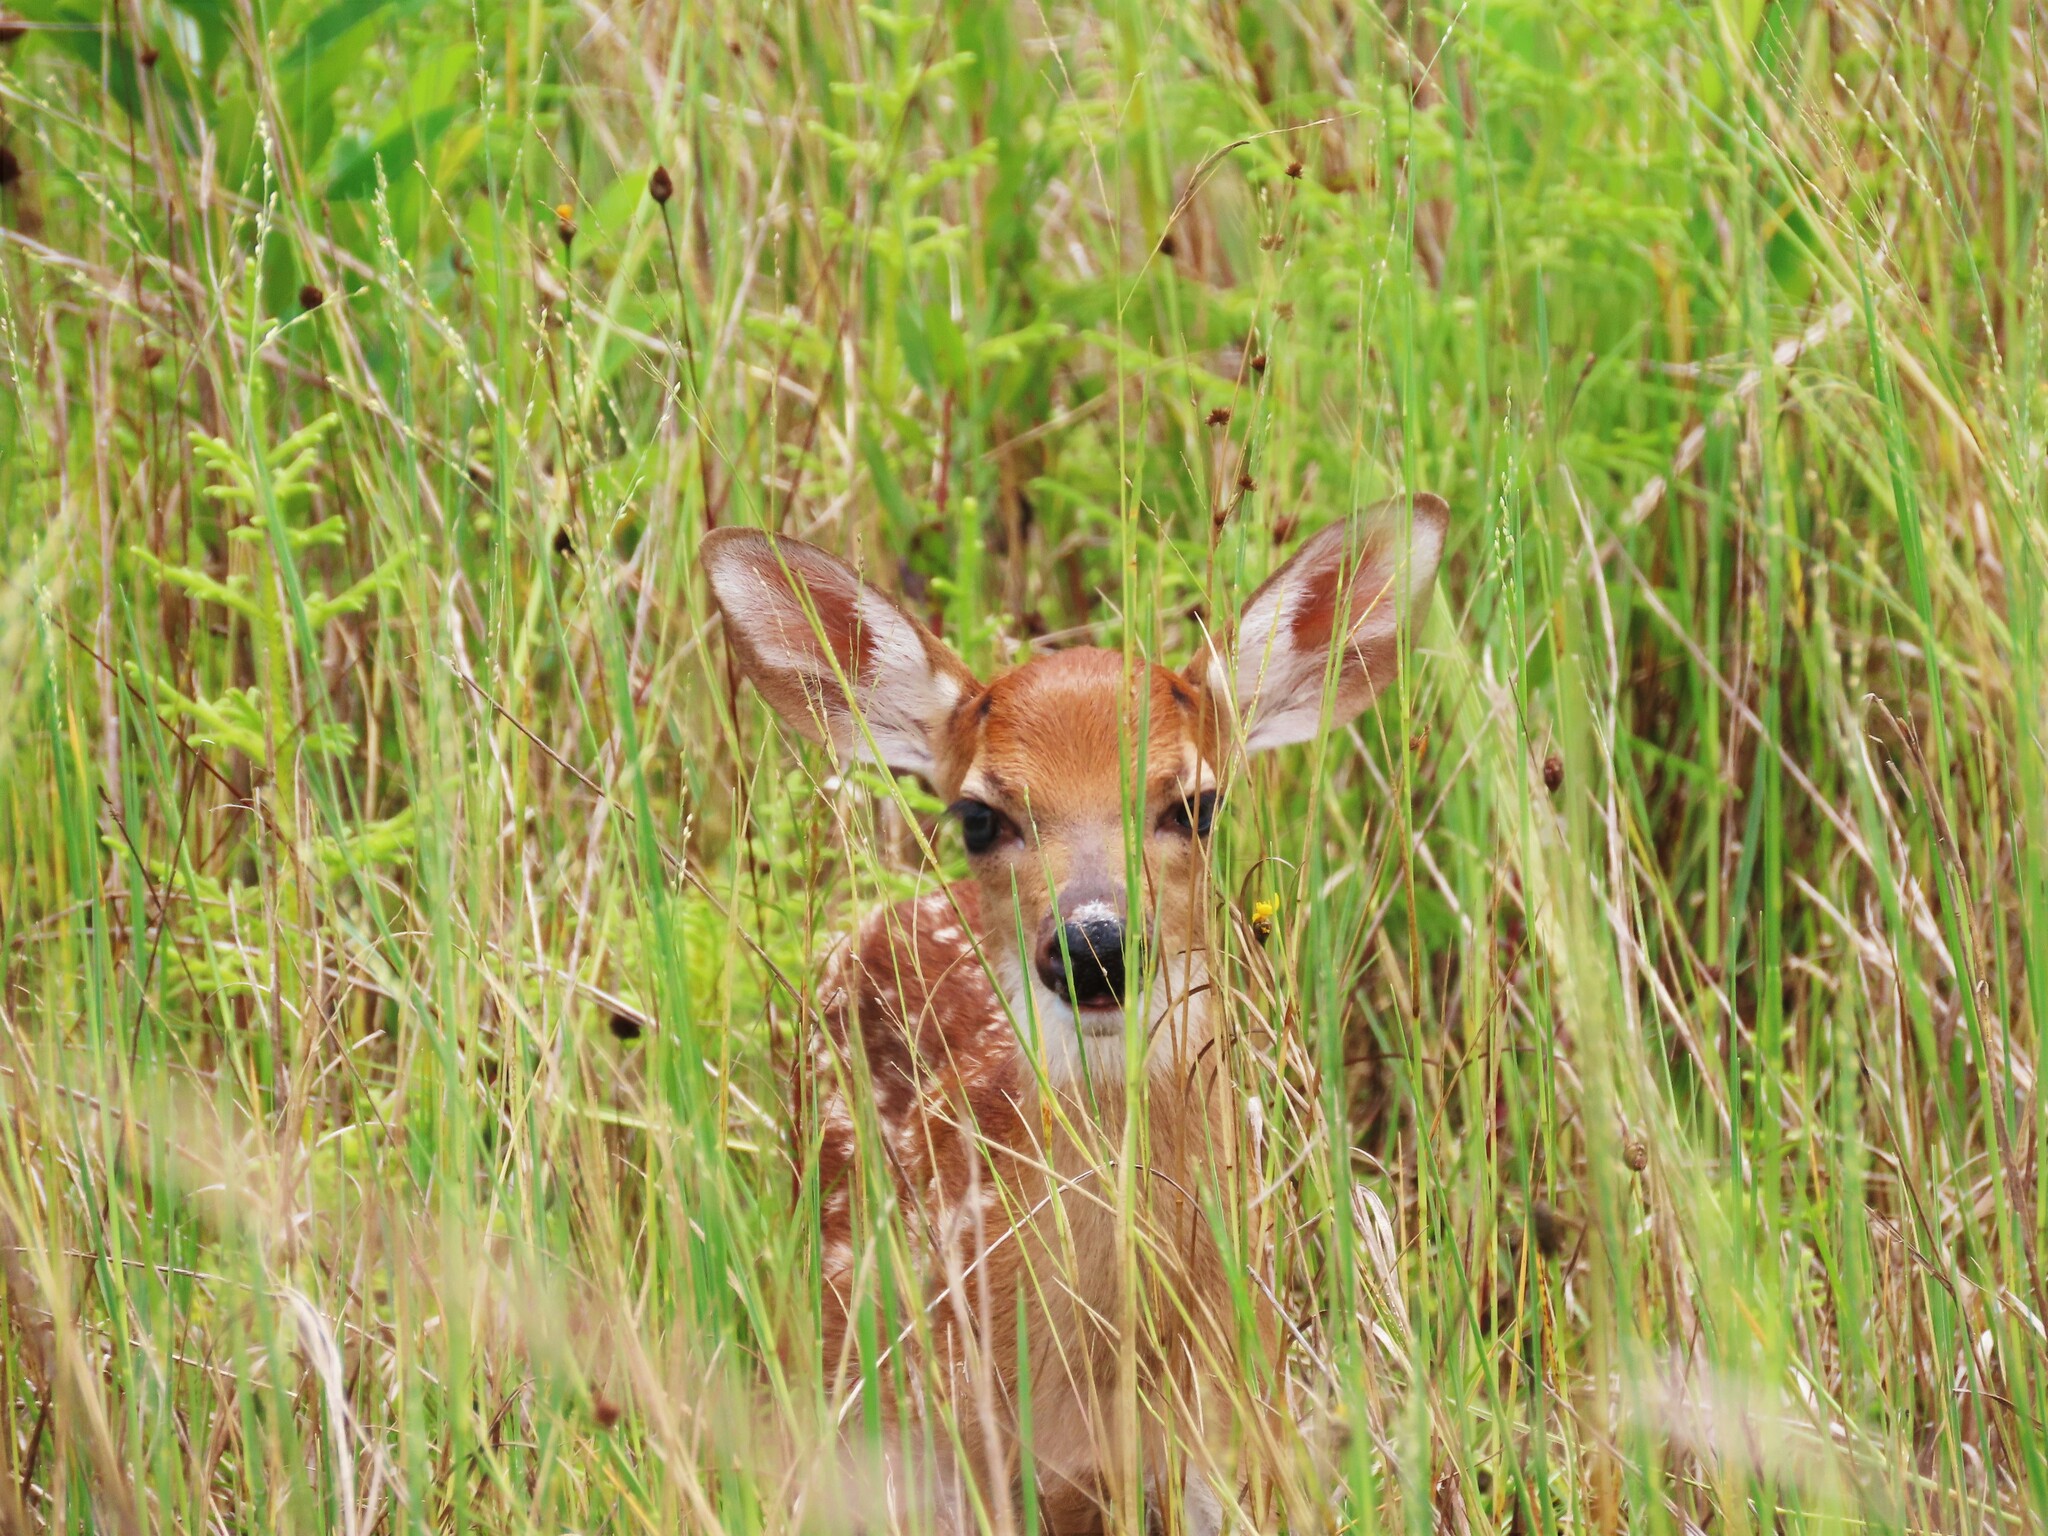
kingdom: Animalia
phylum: Chordata
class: Mammalia
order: Artiodactyla
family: Cervidae
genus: Odocoileus
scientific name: Odocoileus virginianus
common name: White-tailed deer
